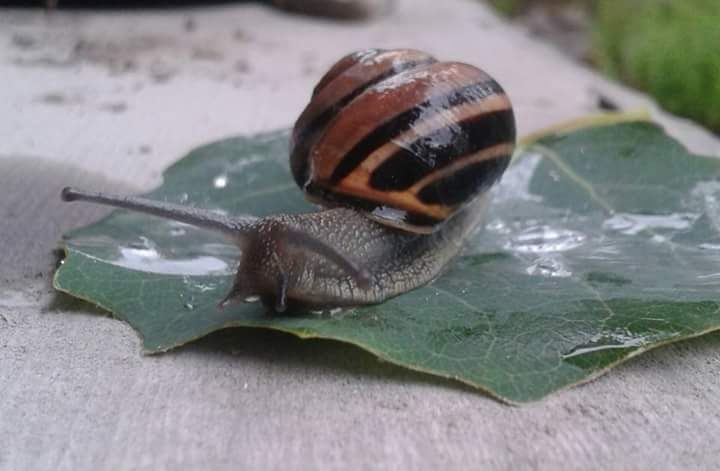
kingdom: Animalia
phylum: Mollusca
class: Gastropoda
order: Stylommatophora
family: Helicidae
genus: Cepaea
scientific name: Cepaea nemoralis
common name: Grovesnail
